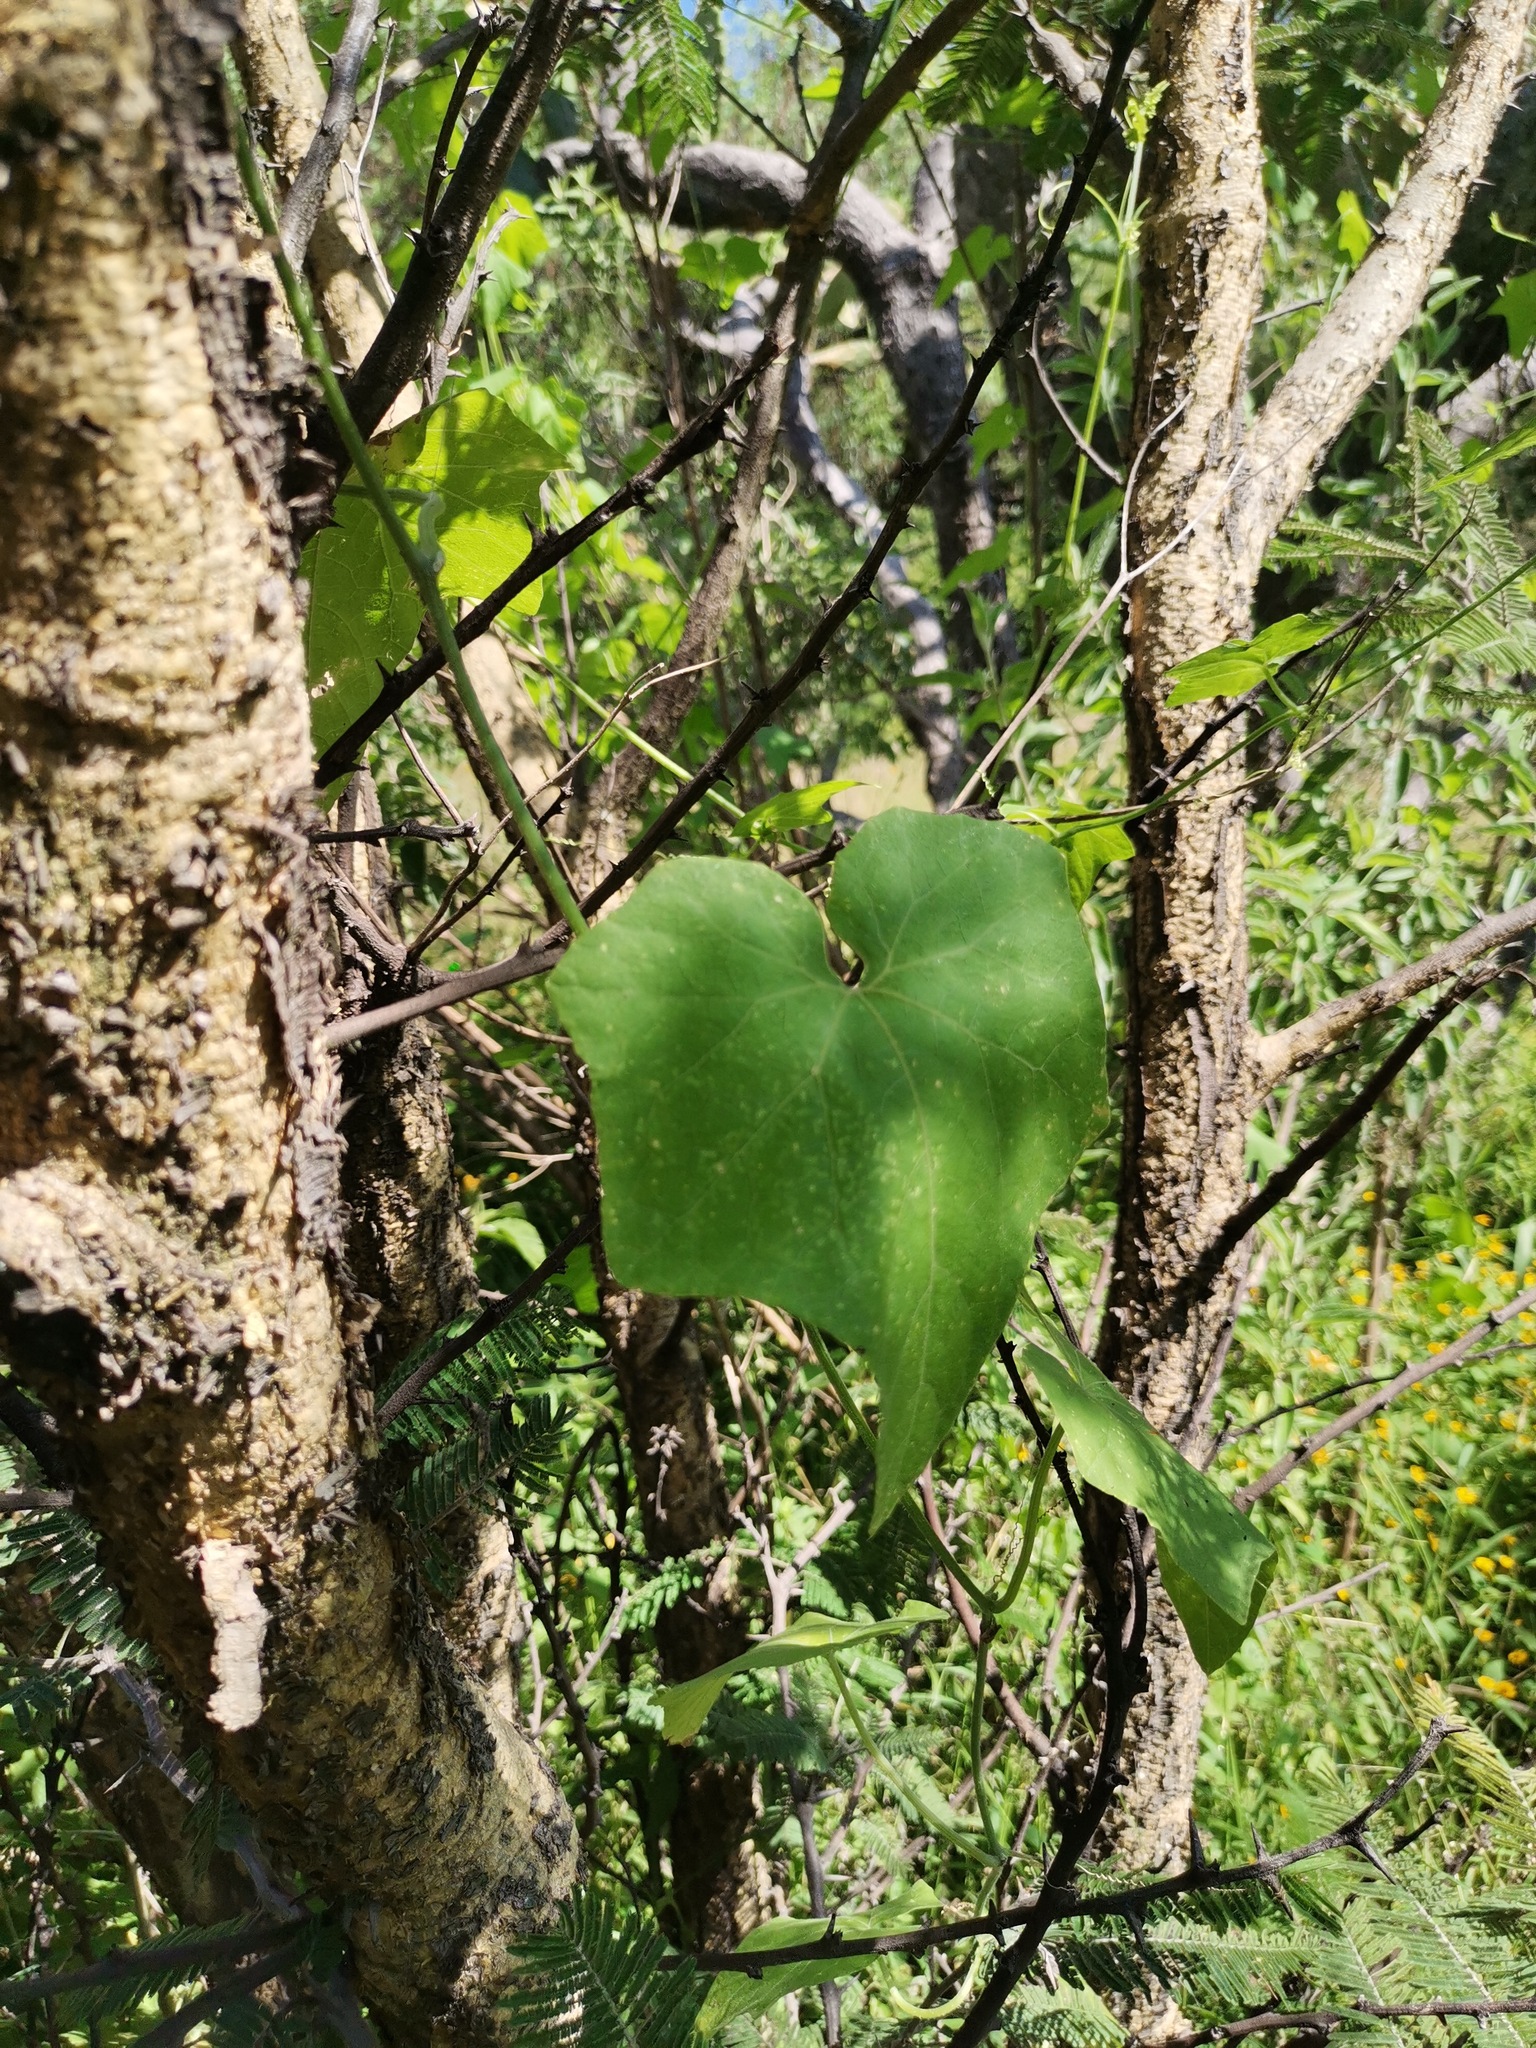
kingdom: Plantae
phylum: Tracheophyta
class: Magnoliopsida
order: Cucurbitales
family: Cucurbitaceae
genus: Sicyos
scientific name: Sicyos angulatus
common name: Angled burr cucumber
